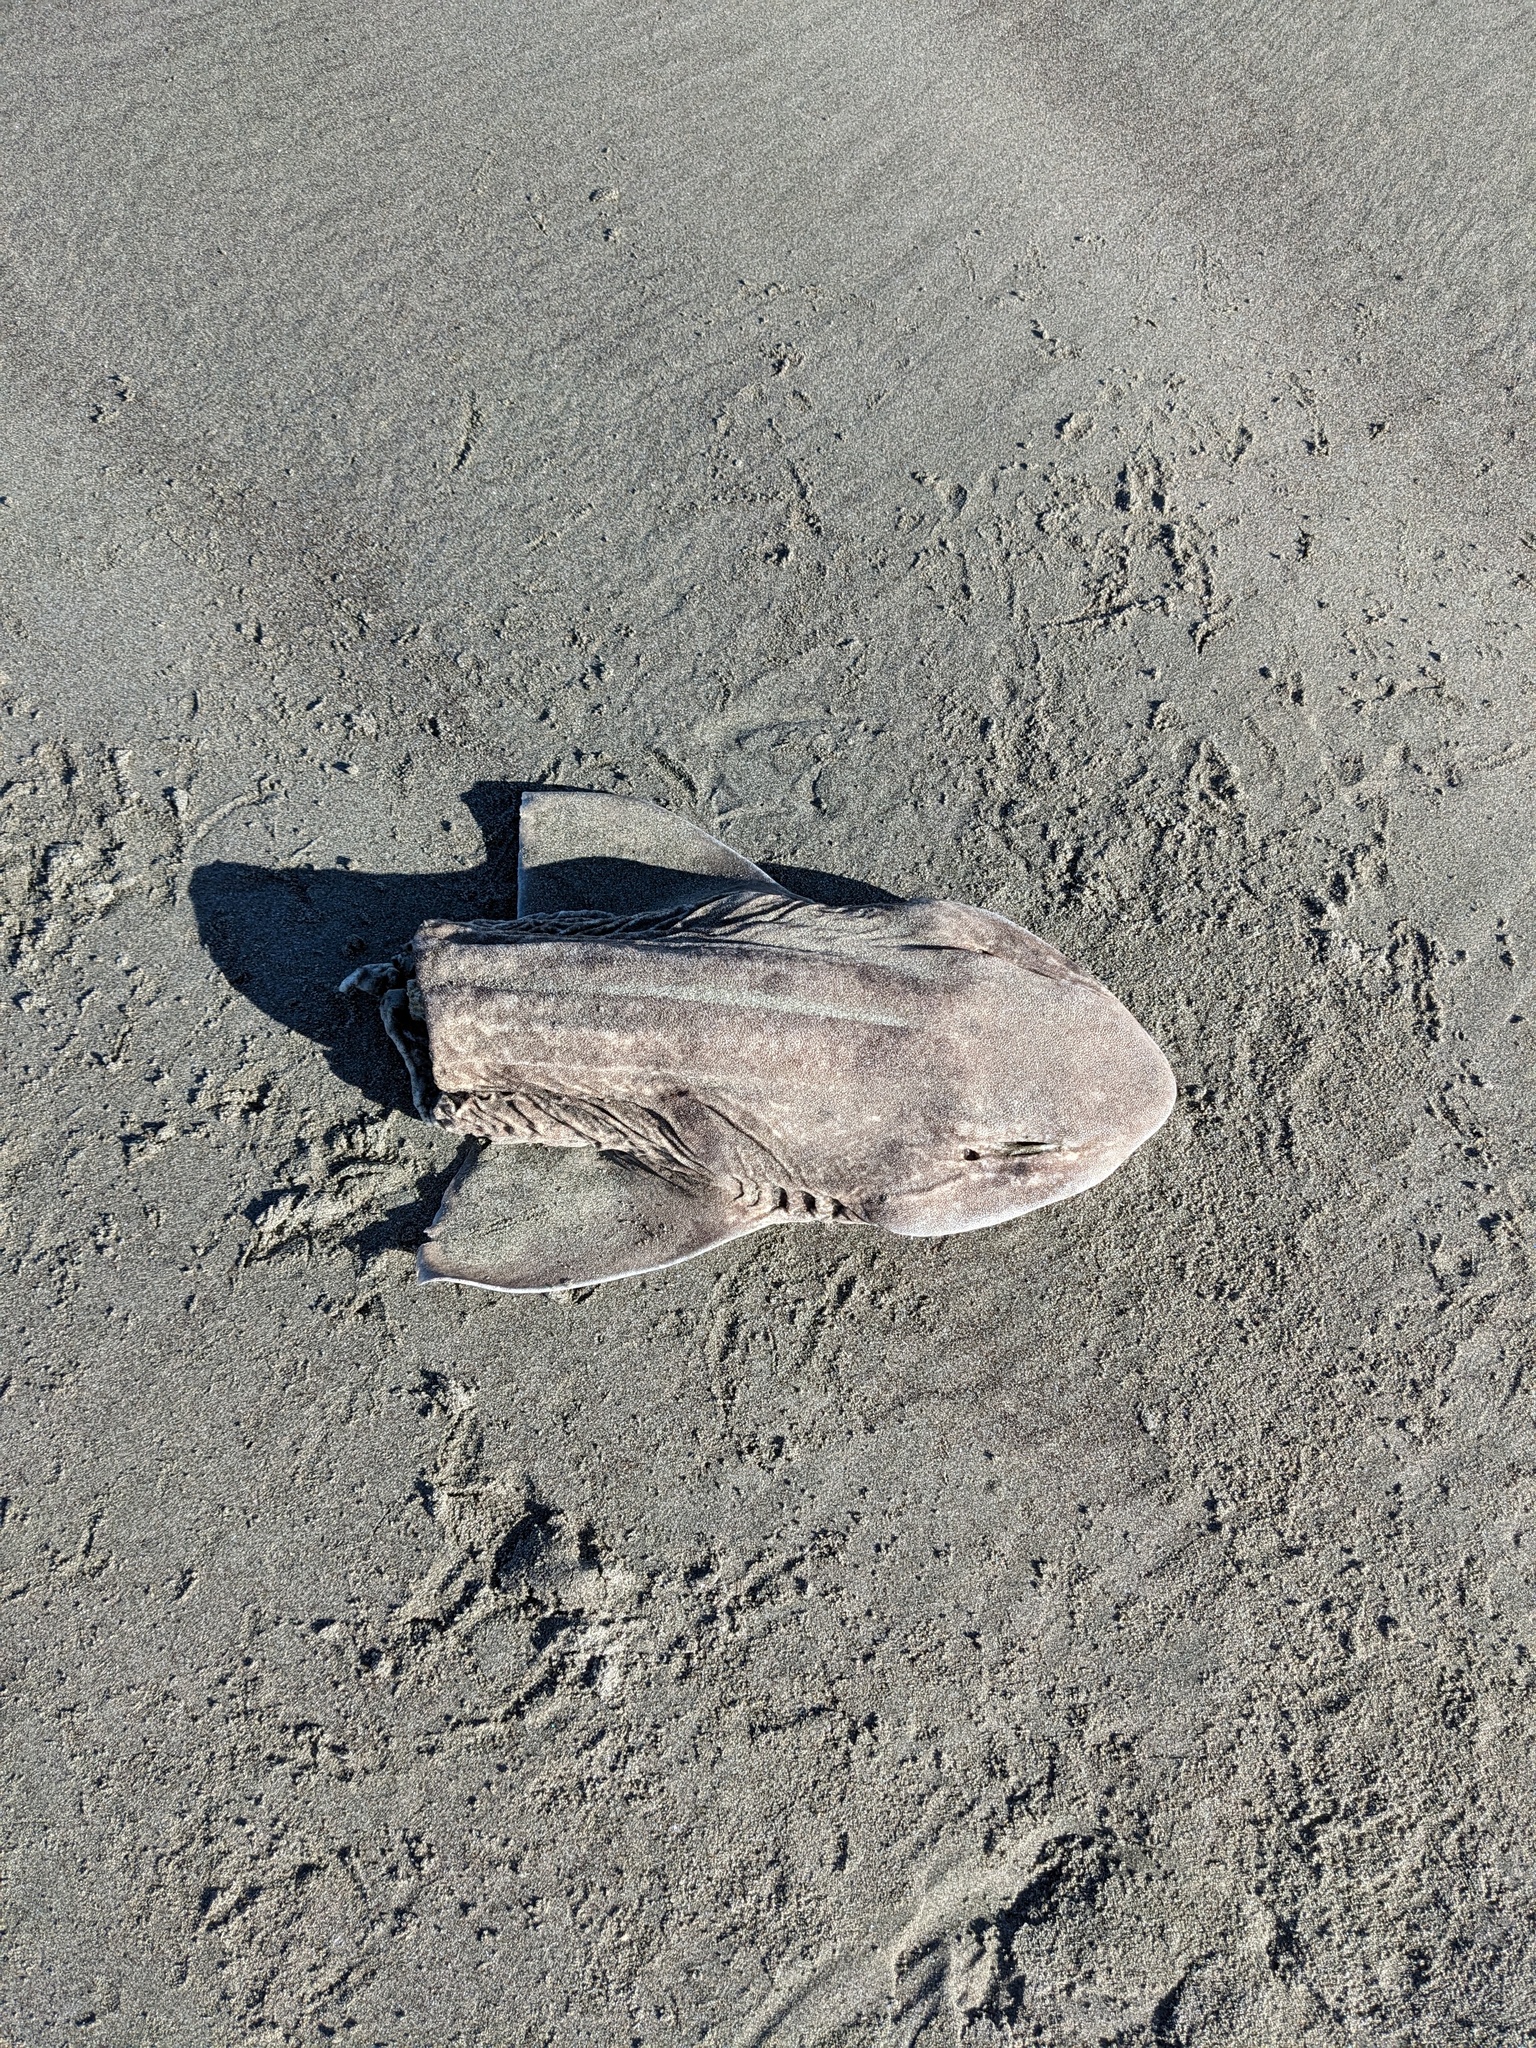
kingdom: Animalia
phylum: Chordata
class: Elasmobranchii
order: Carcharhiniformes
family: Scyliorhinidae
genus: Cephaloscyllium
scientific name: Cephaloscyllium isabellum
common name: Carpet shark
